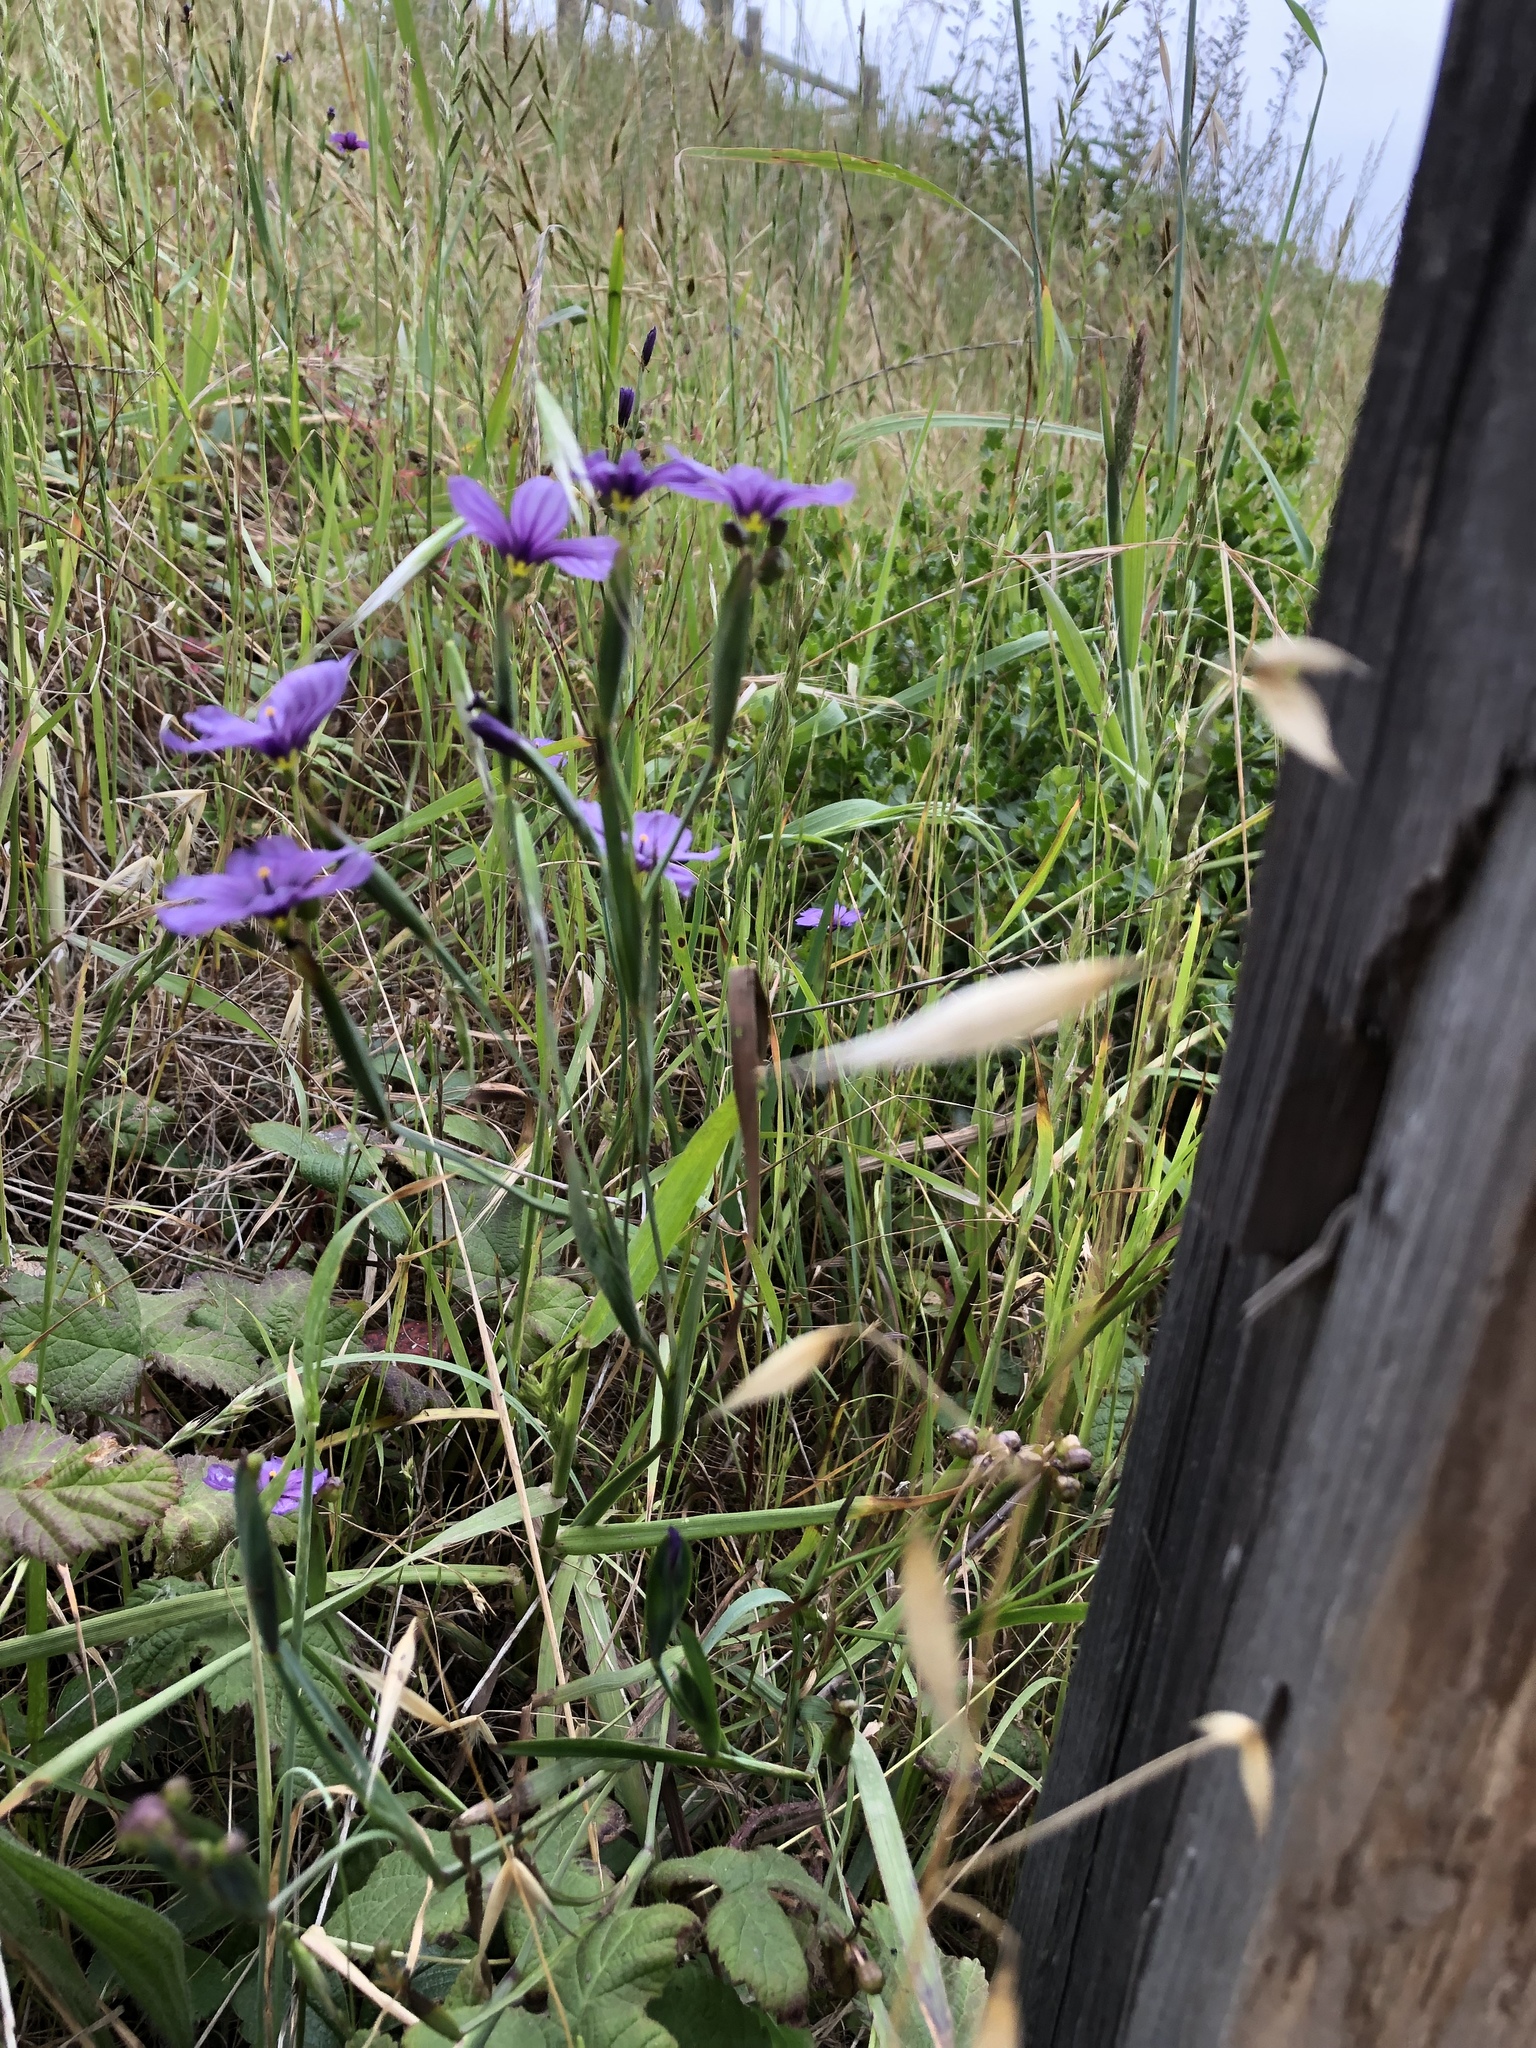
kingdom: Plantae
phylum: Tracheophyta
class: Liliopsida
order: Asparagales
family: Iridaceae
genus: Sisyrinchium
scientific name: Sisyrinchium bellum
